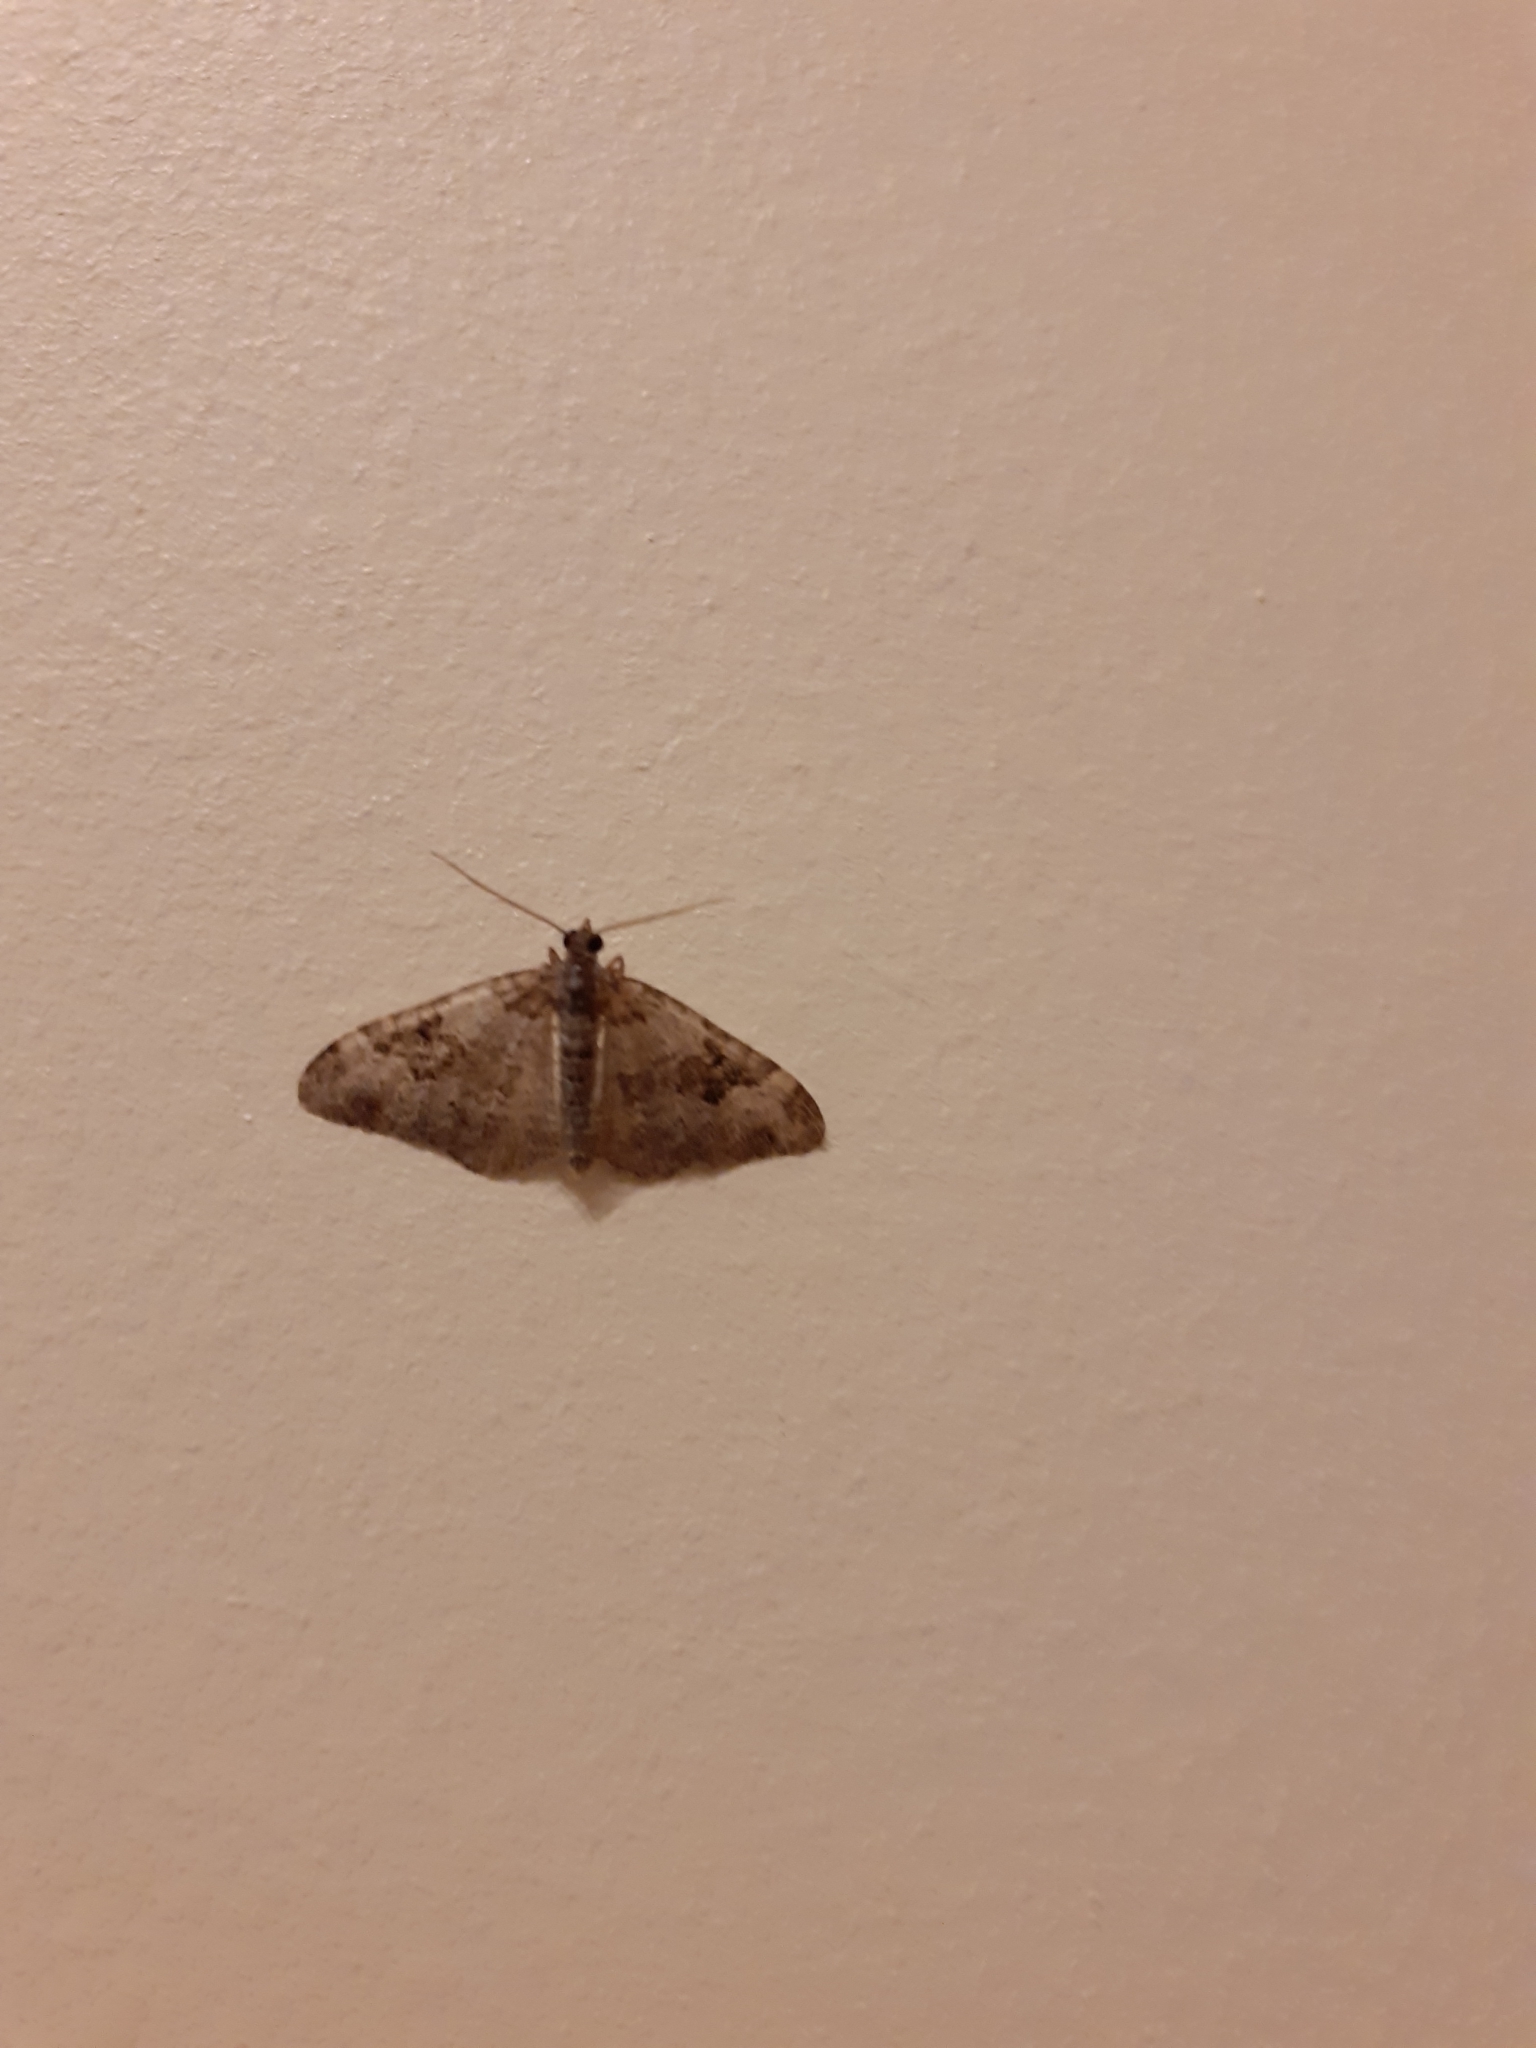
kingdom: Animalia
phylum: Arthropoda
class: Insecta
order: Lepidoptera
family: Geometridae
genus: Xanthorhoe
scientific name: Xanthorhoe fluctuata
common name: Garden carpet
